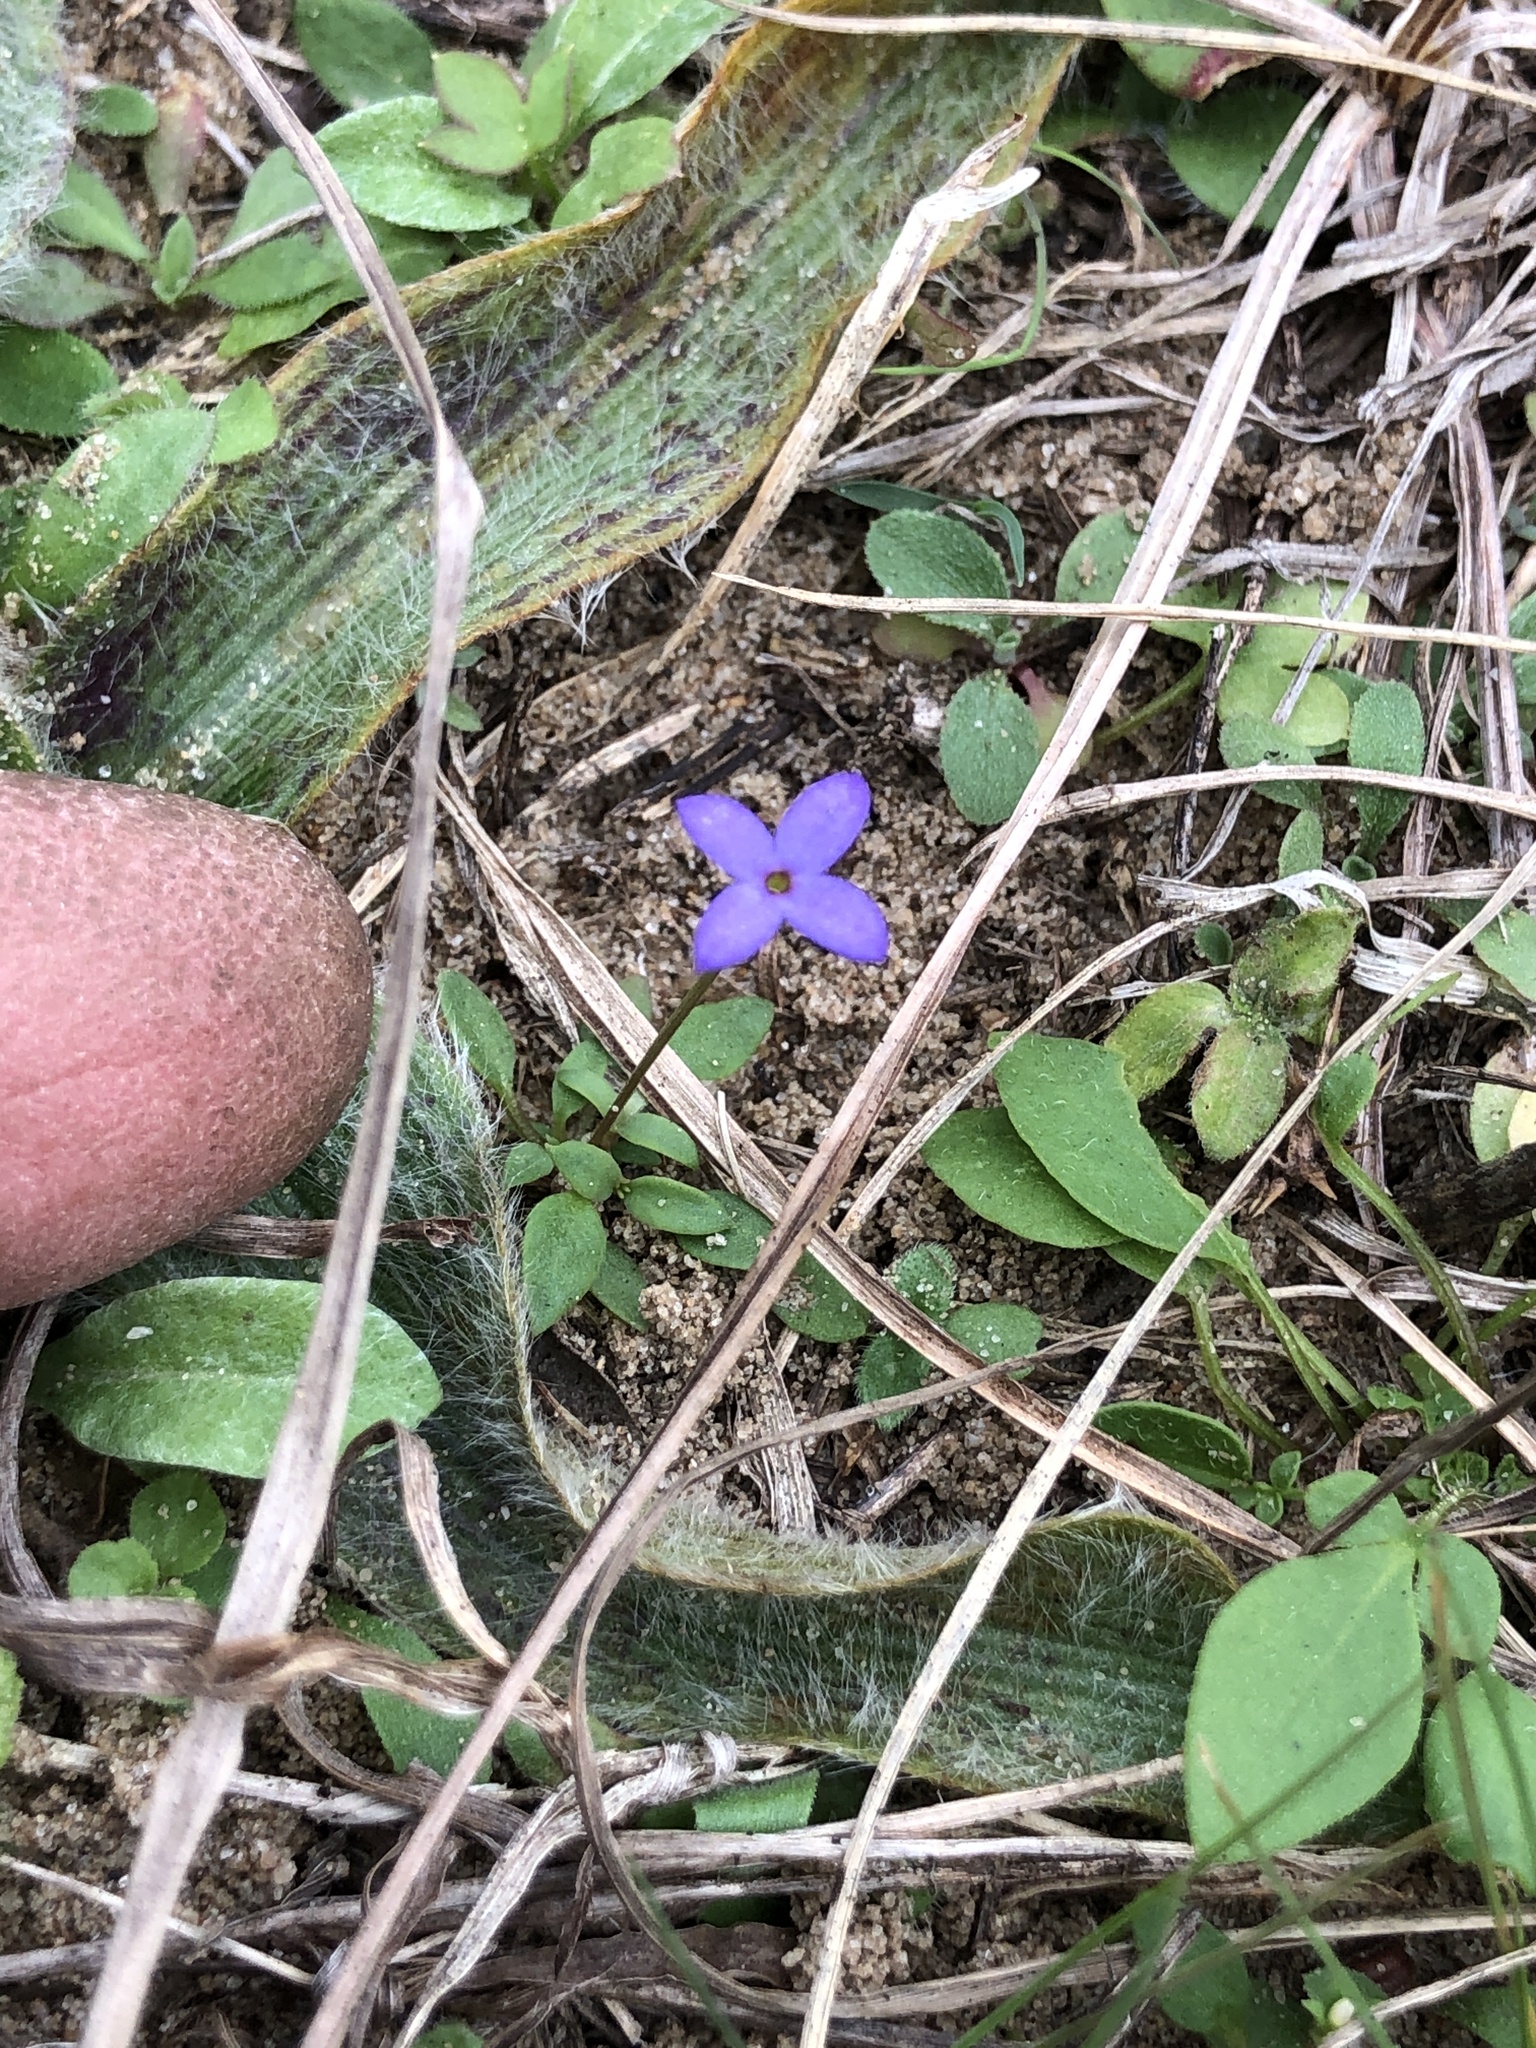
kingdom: Plantae
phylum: Tracheophyta
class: Magnoliopsida
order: Gentianales
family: Rubiaceae
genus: Houstonia
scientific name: Houstonia pusilla
